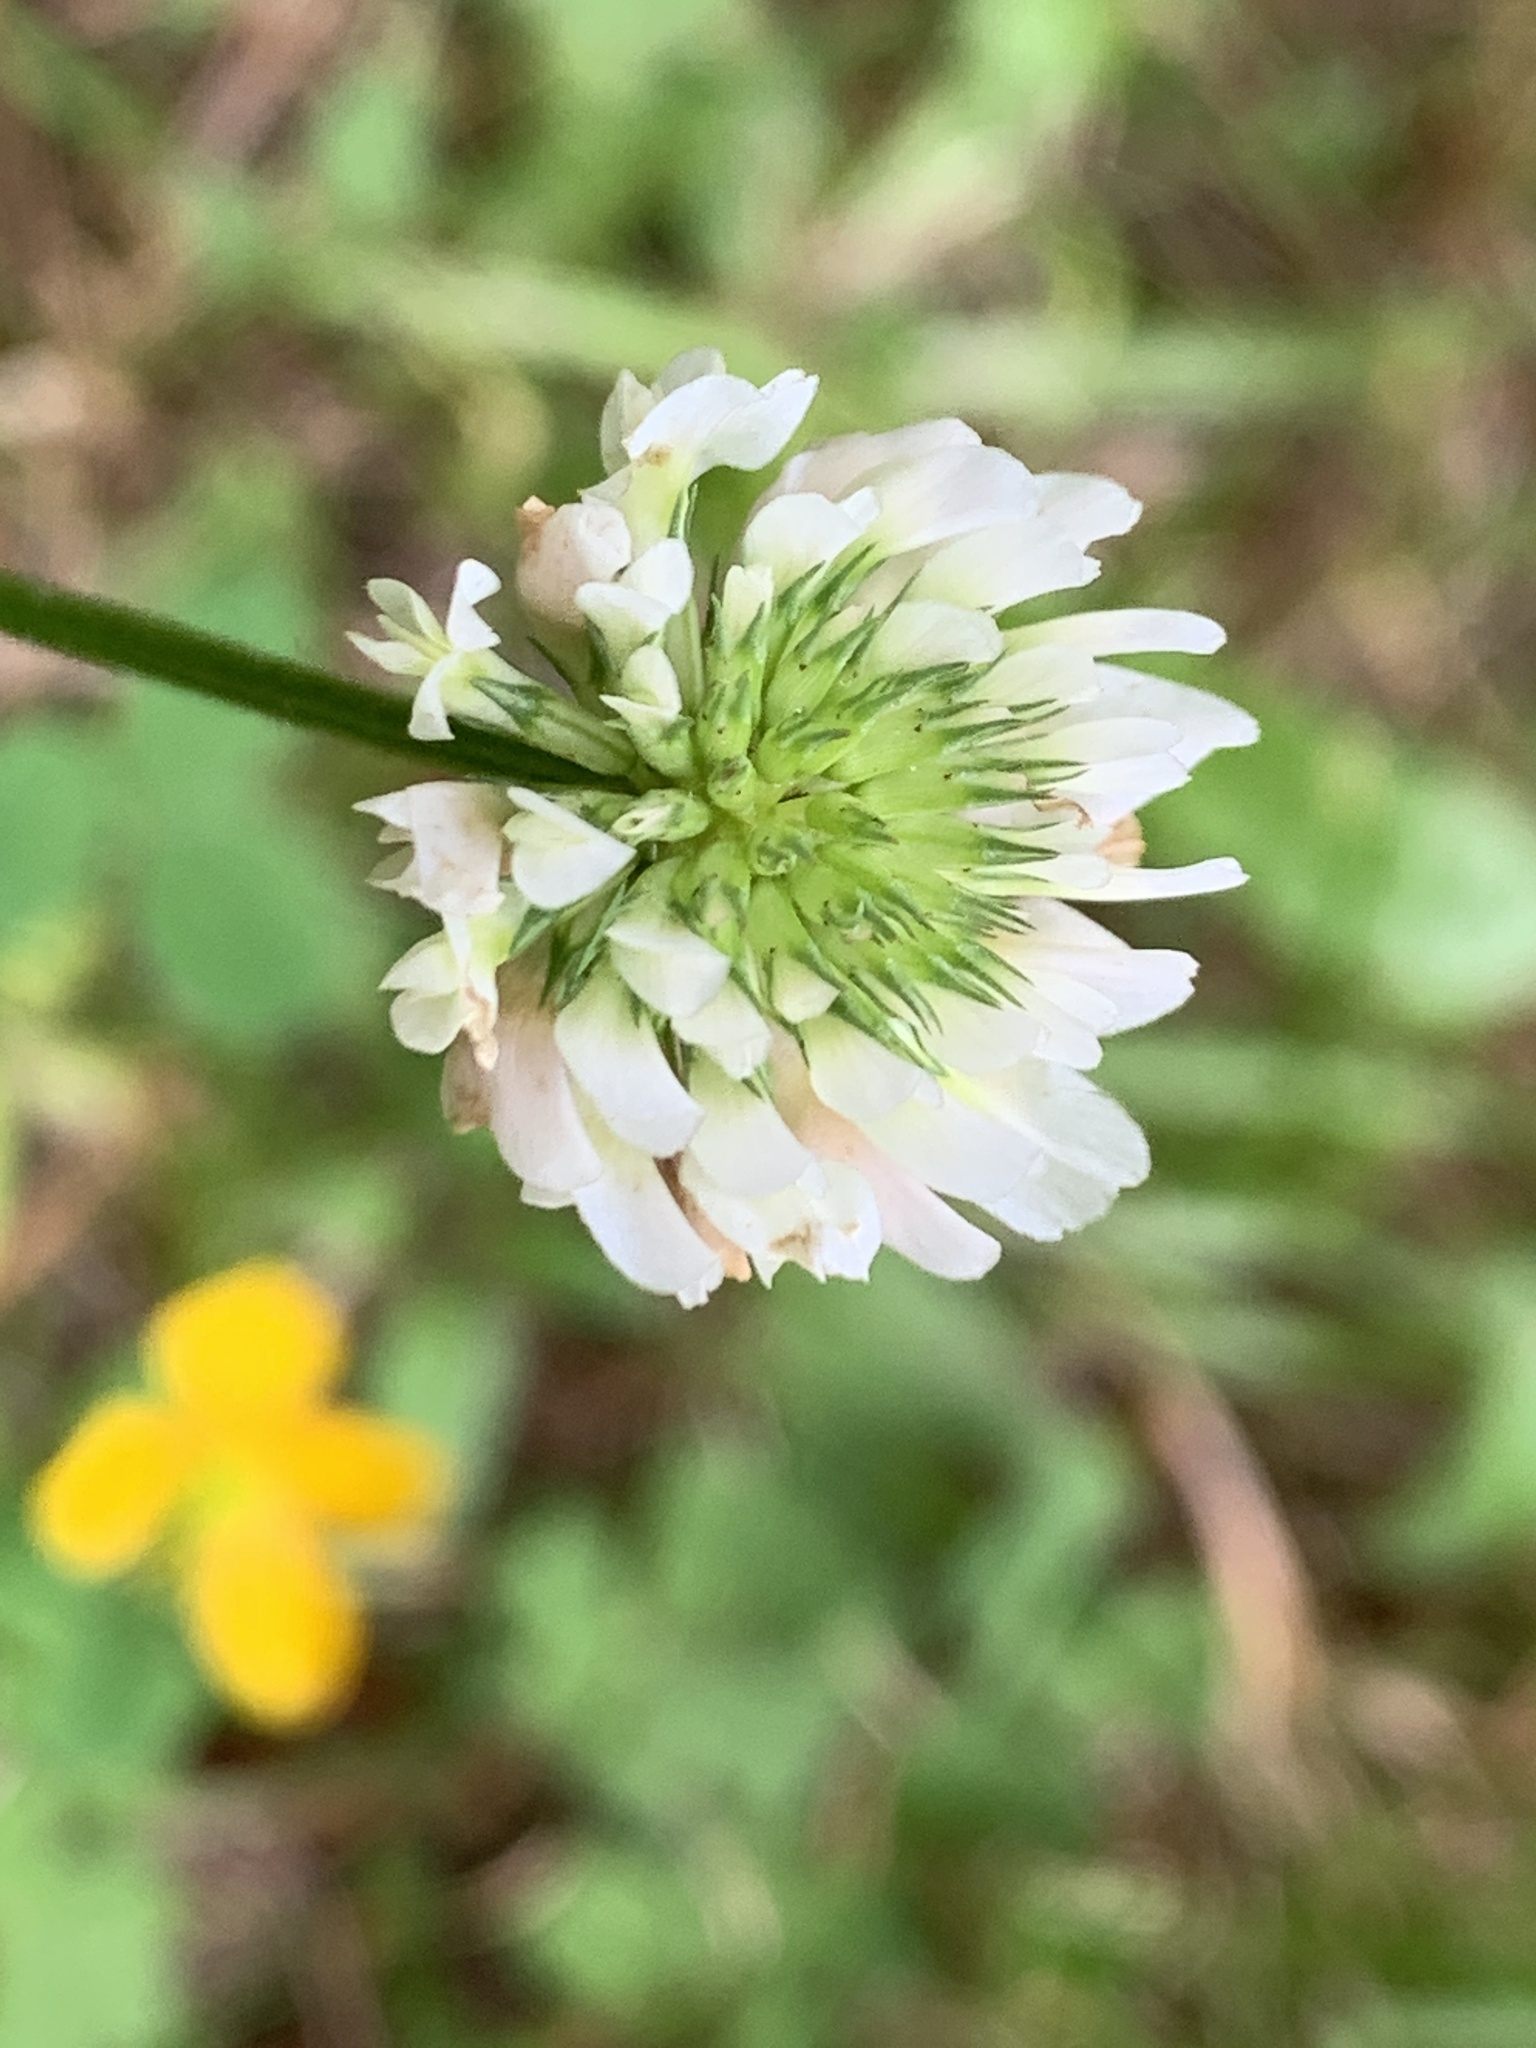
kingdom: Plantae
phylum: Tracheophyta
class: Magnoliopsida
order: Fabales
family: Fabaceae
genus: Trifolium
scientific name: Trifolium repens
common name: White clover
